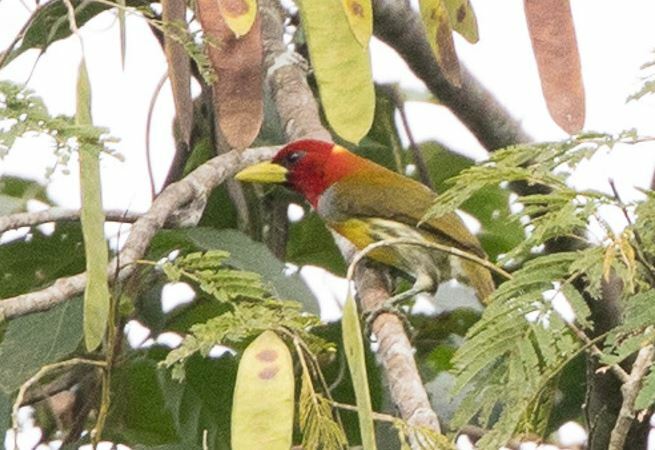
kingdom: Animalia
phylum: Chordata
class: Aves
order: Piciformes
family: Capitonidae
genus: Eubucco
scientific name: Eubucco tucinkae
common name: Scarlet-hooded barbet
